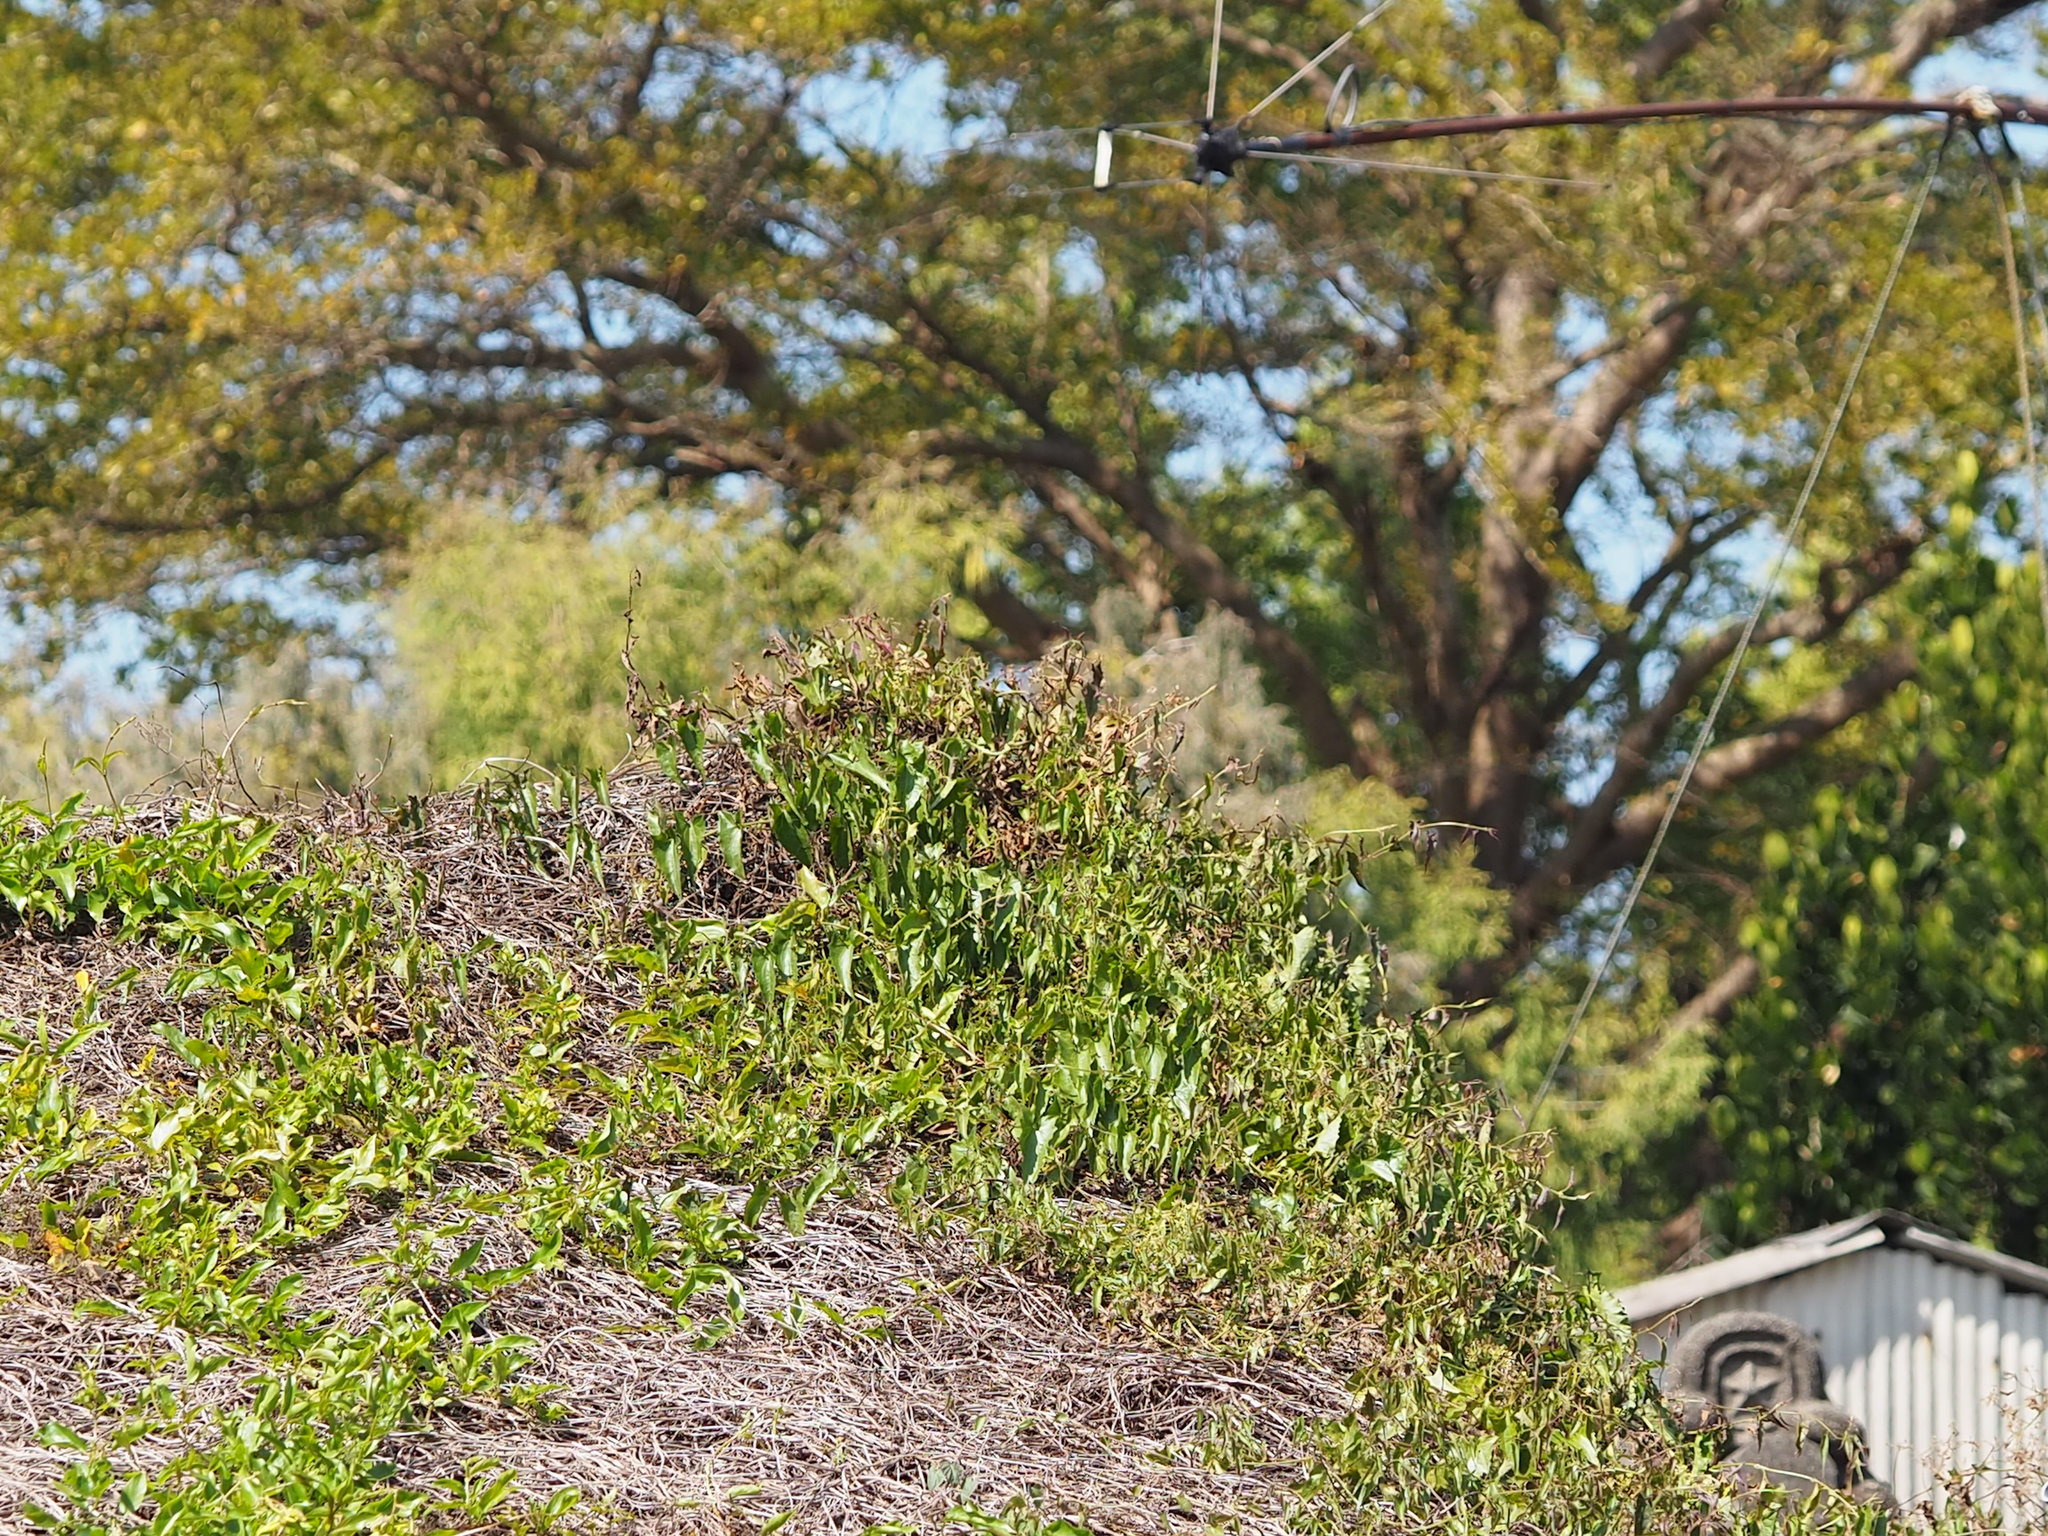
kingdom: Plantae
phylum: Tracheophyta
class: Magnoliopsida
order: Asterales
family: Asteraceae
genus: Mikania
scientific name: Mikania micrantha
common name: Mile-a-minute
